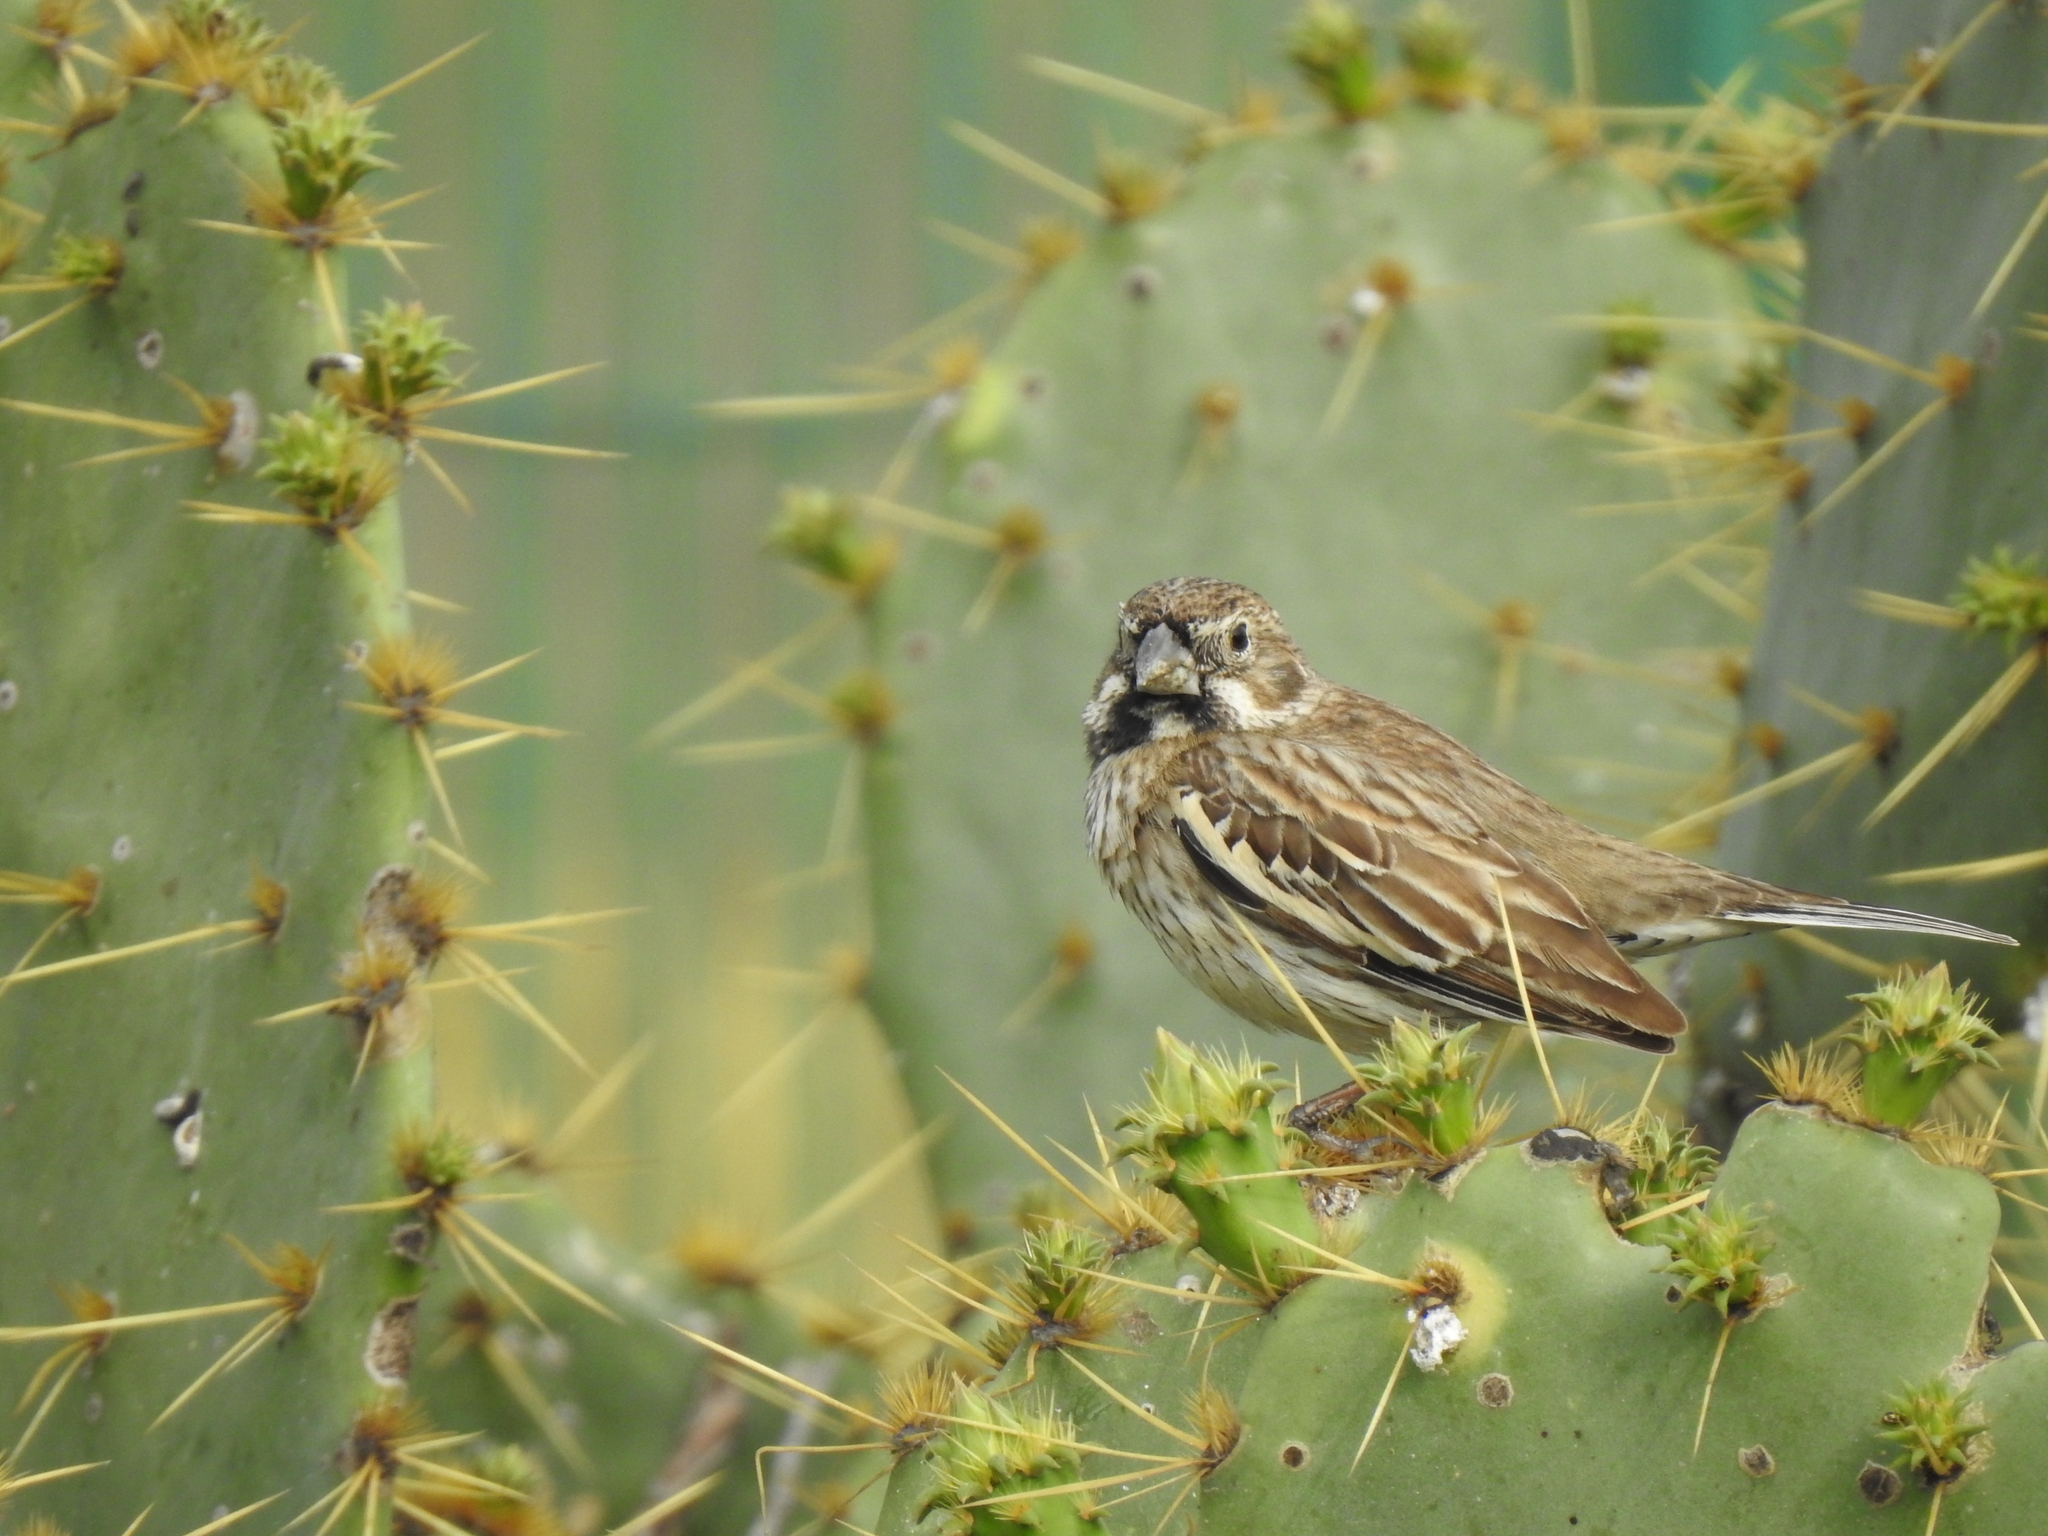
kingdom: Animalia
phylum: Chordata
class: Aves
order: Passeriformes
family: Passerellidae
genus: Calamospiza
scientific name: Calamospiza melanocorys
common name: Lark bunting
